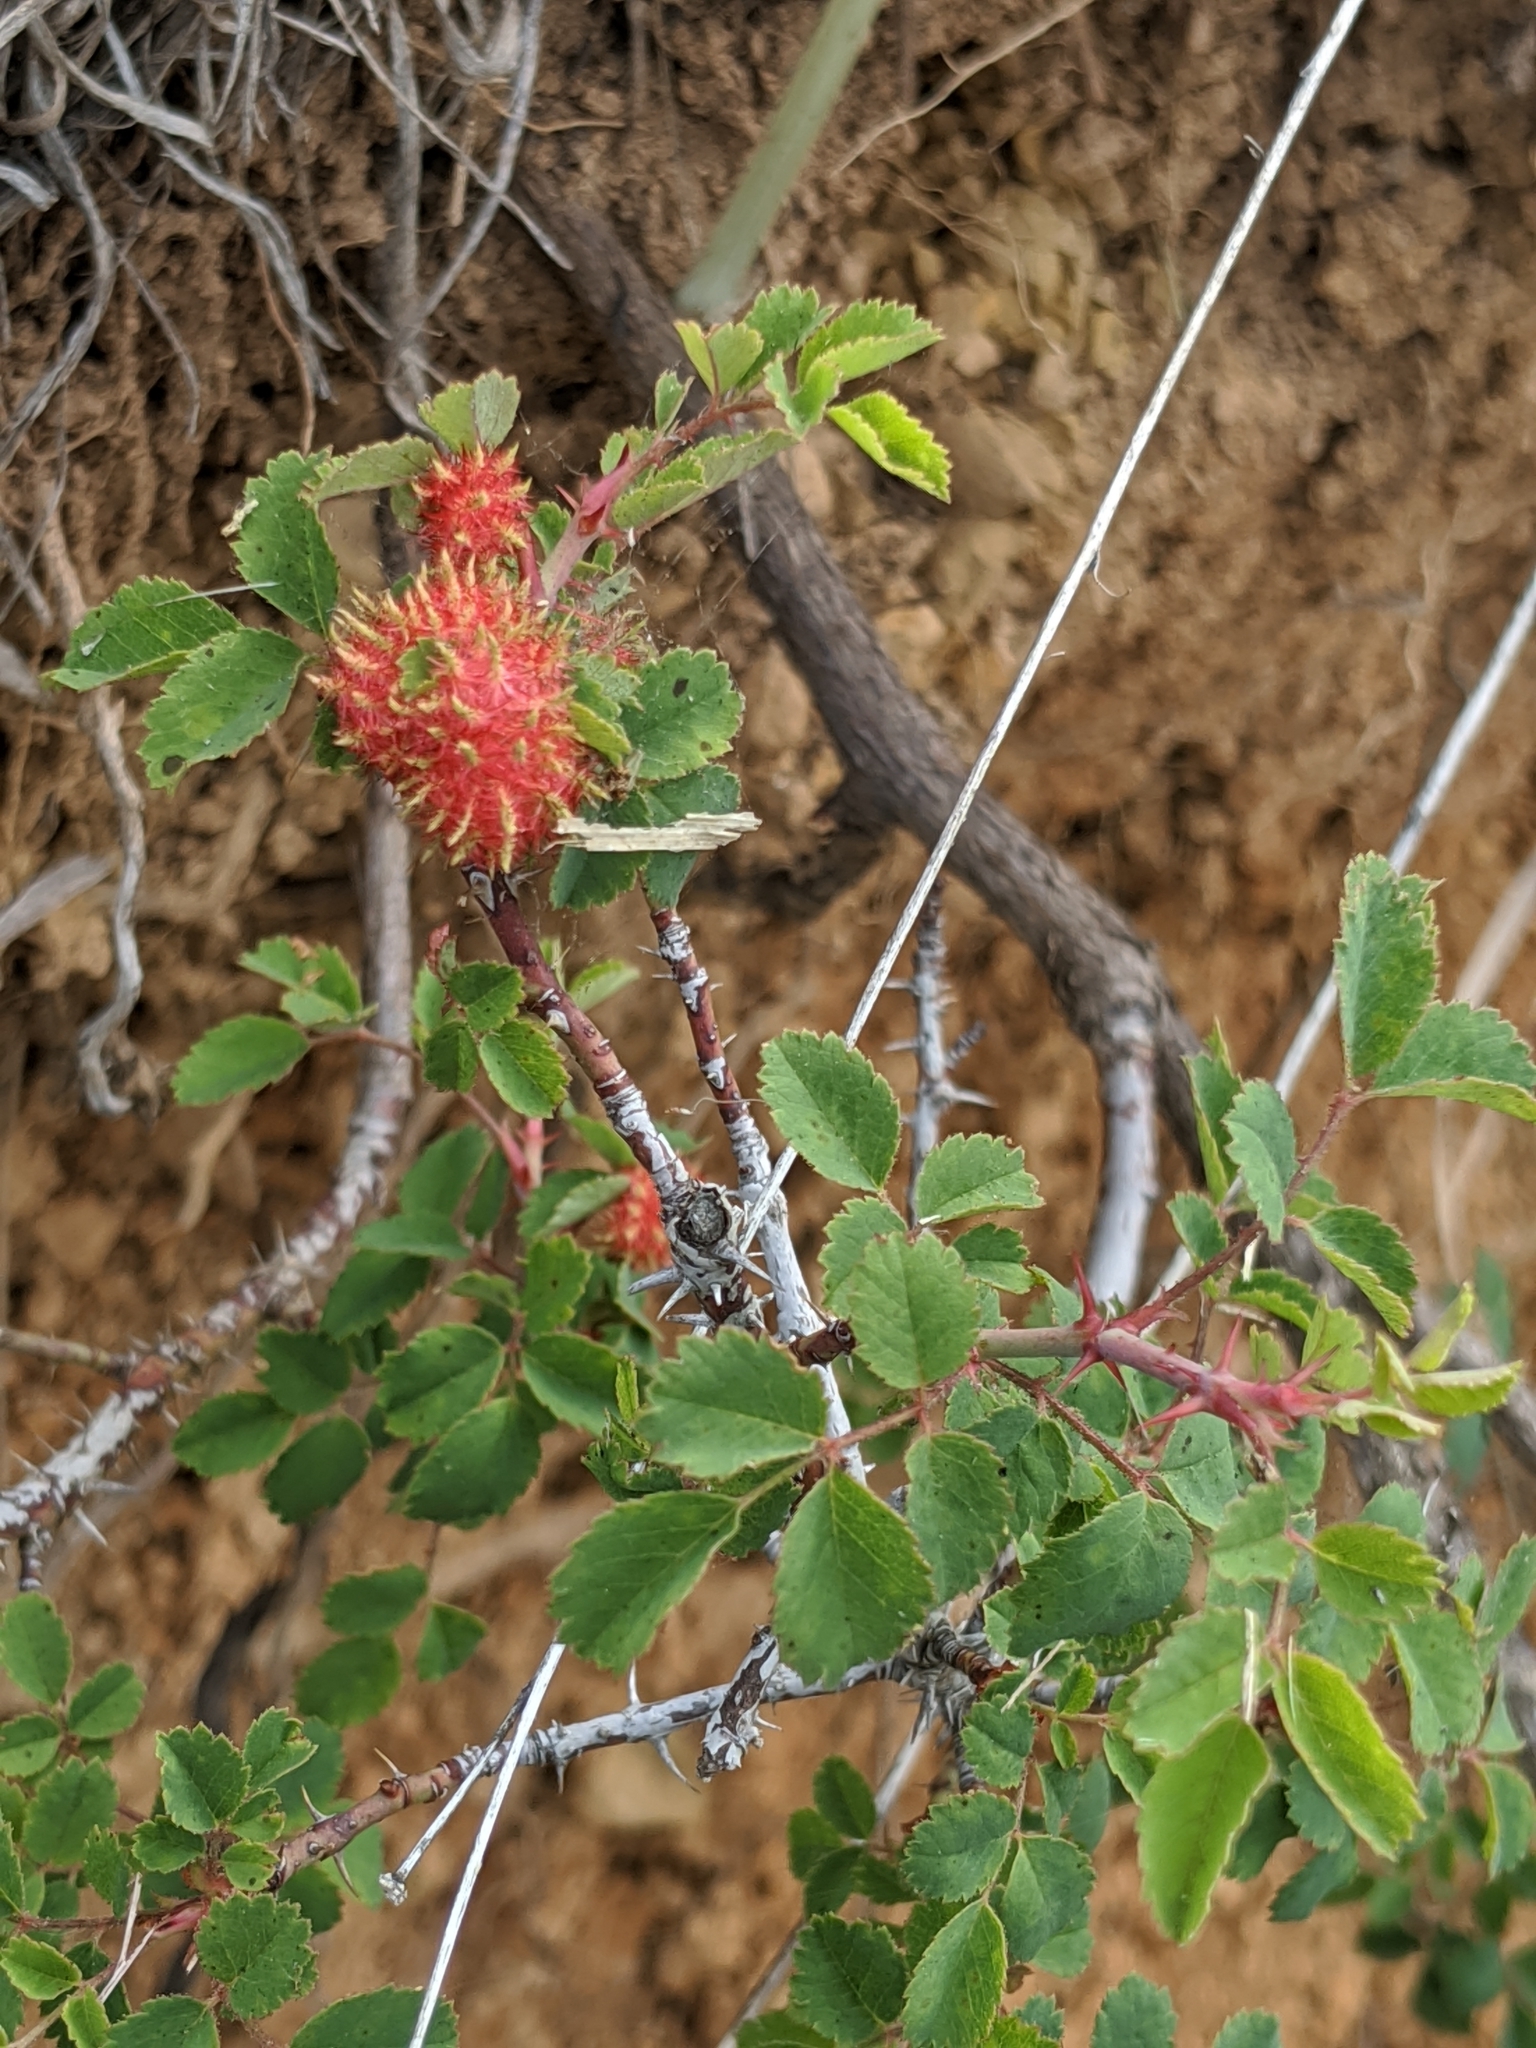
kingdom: Animalia
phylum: Arthropoda
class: Insecta
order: Hymenoptera
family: Cynipidae
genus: Diplolepis
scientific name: Diplolepis rosae
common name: Bedeguar gall
